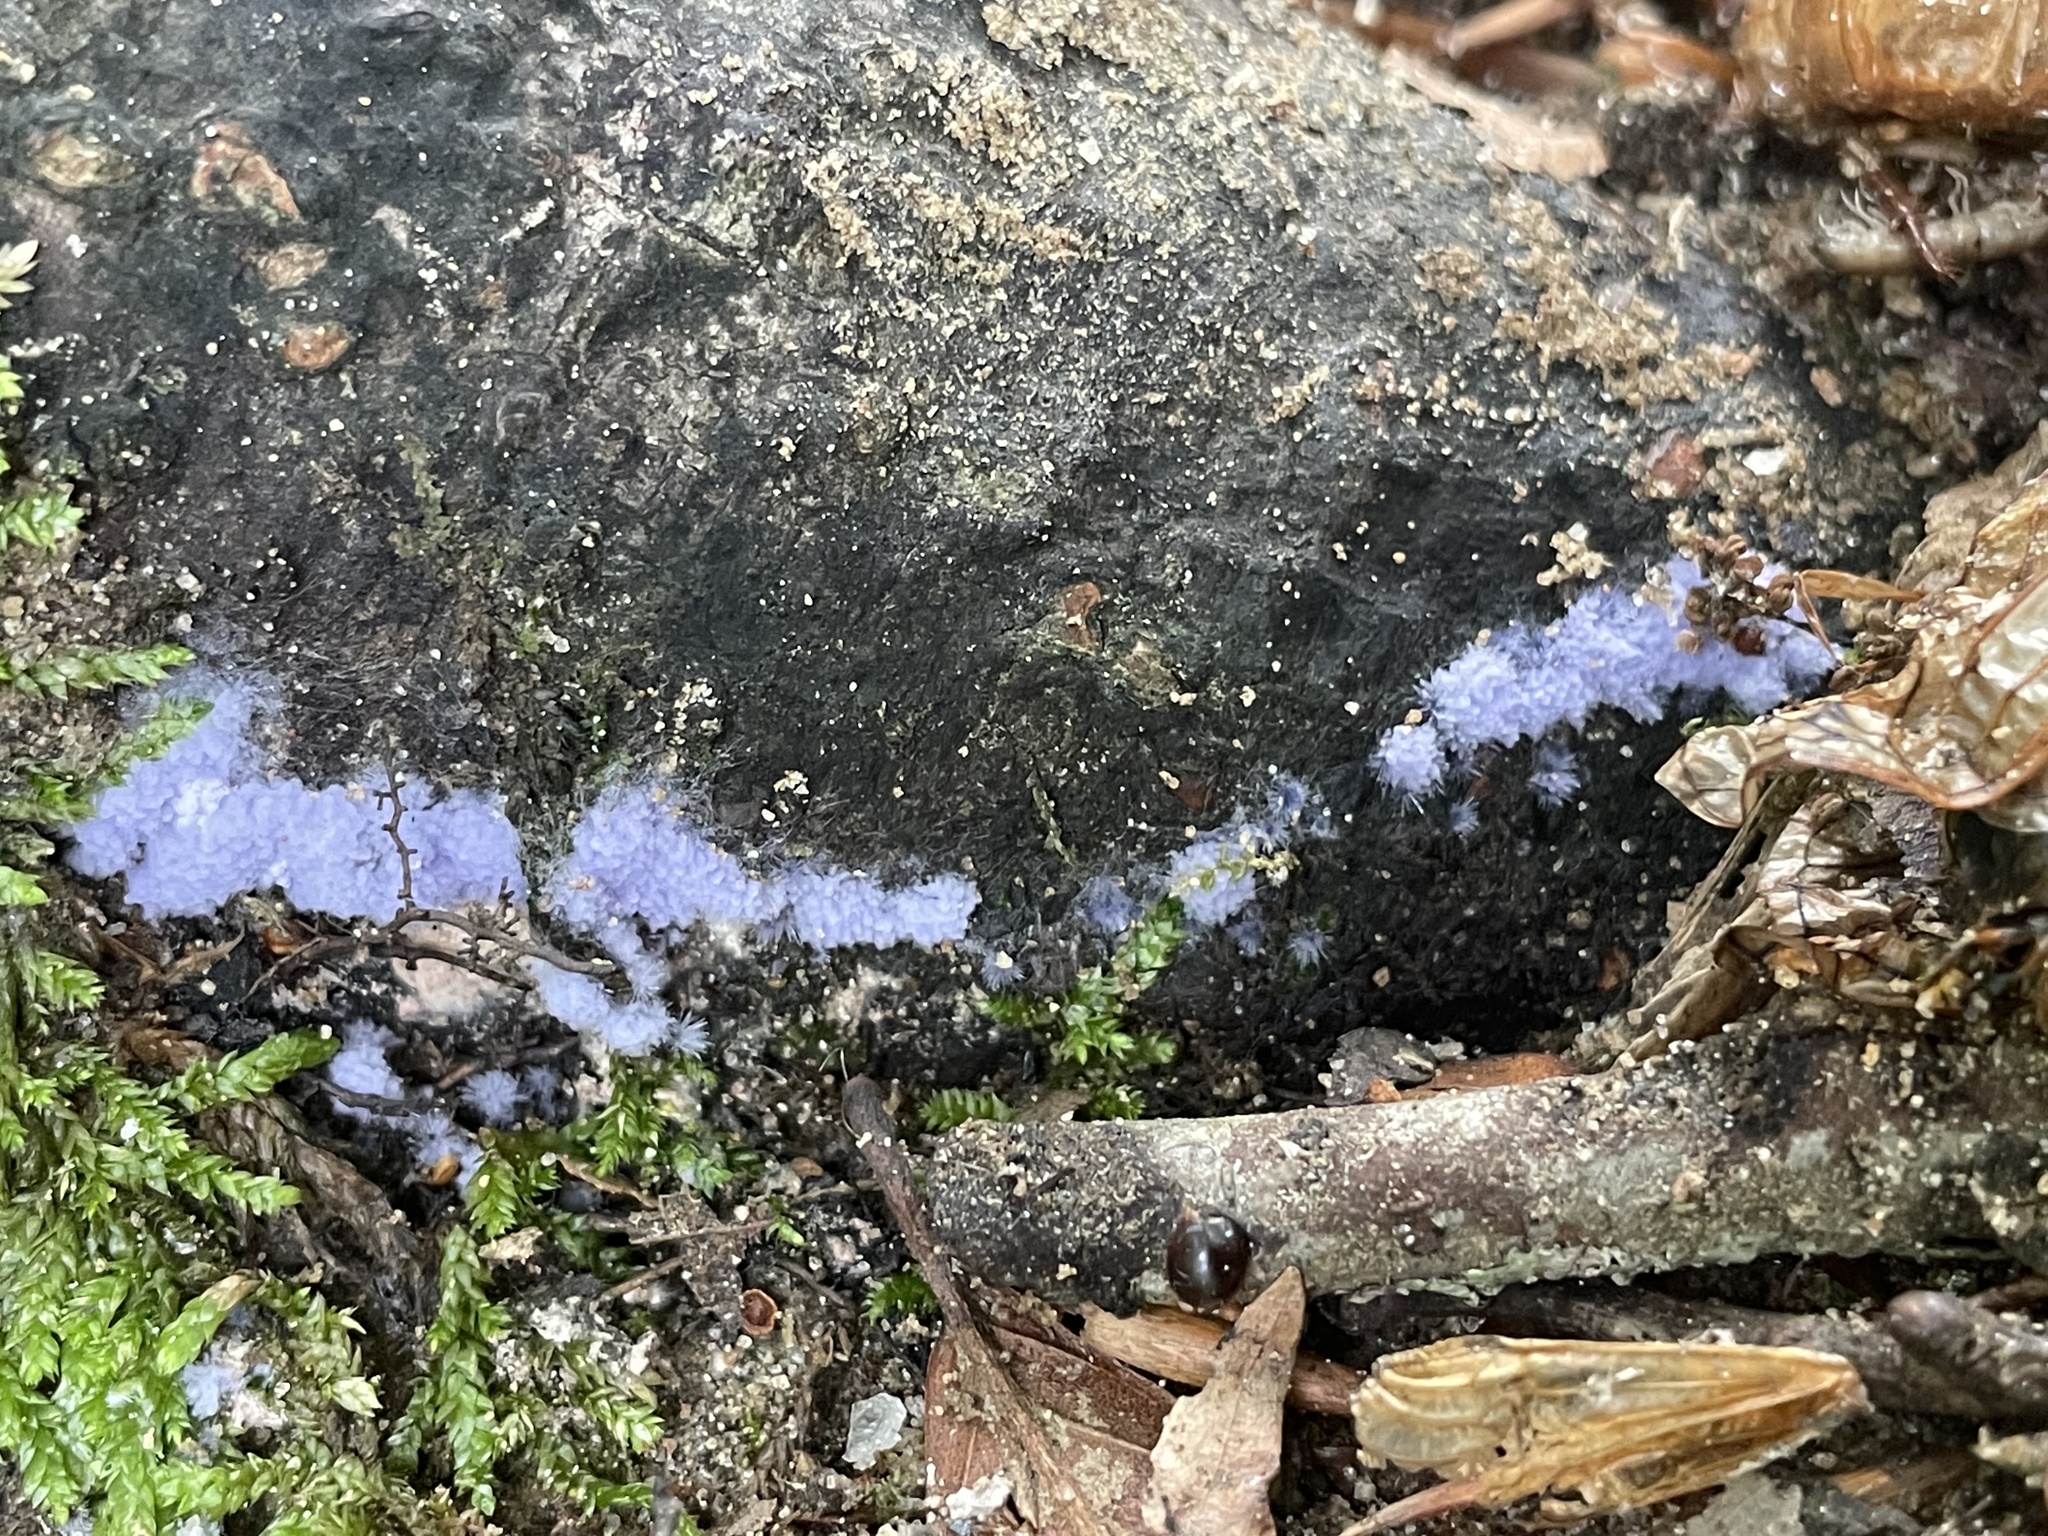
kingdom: Fungi
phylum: Ascomycota
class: Pezizomycetes
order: Pezizales
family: Pezizaceae
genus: Chromelosporiopsis
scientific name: Chromelosporiopsis coerulescens
